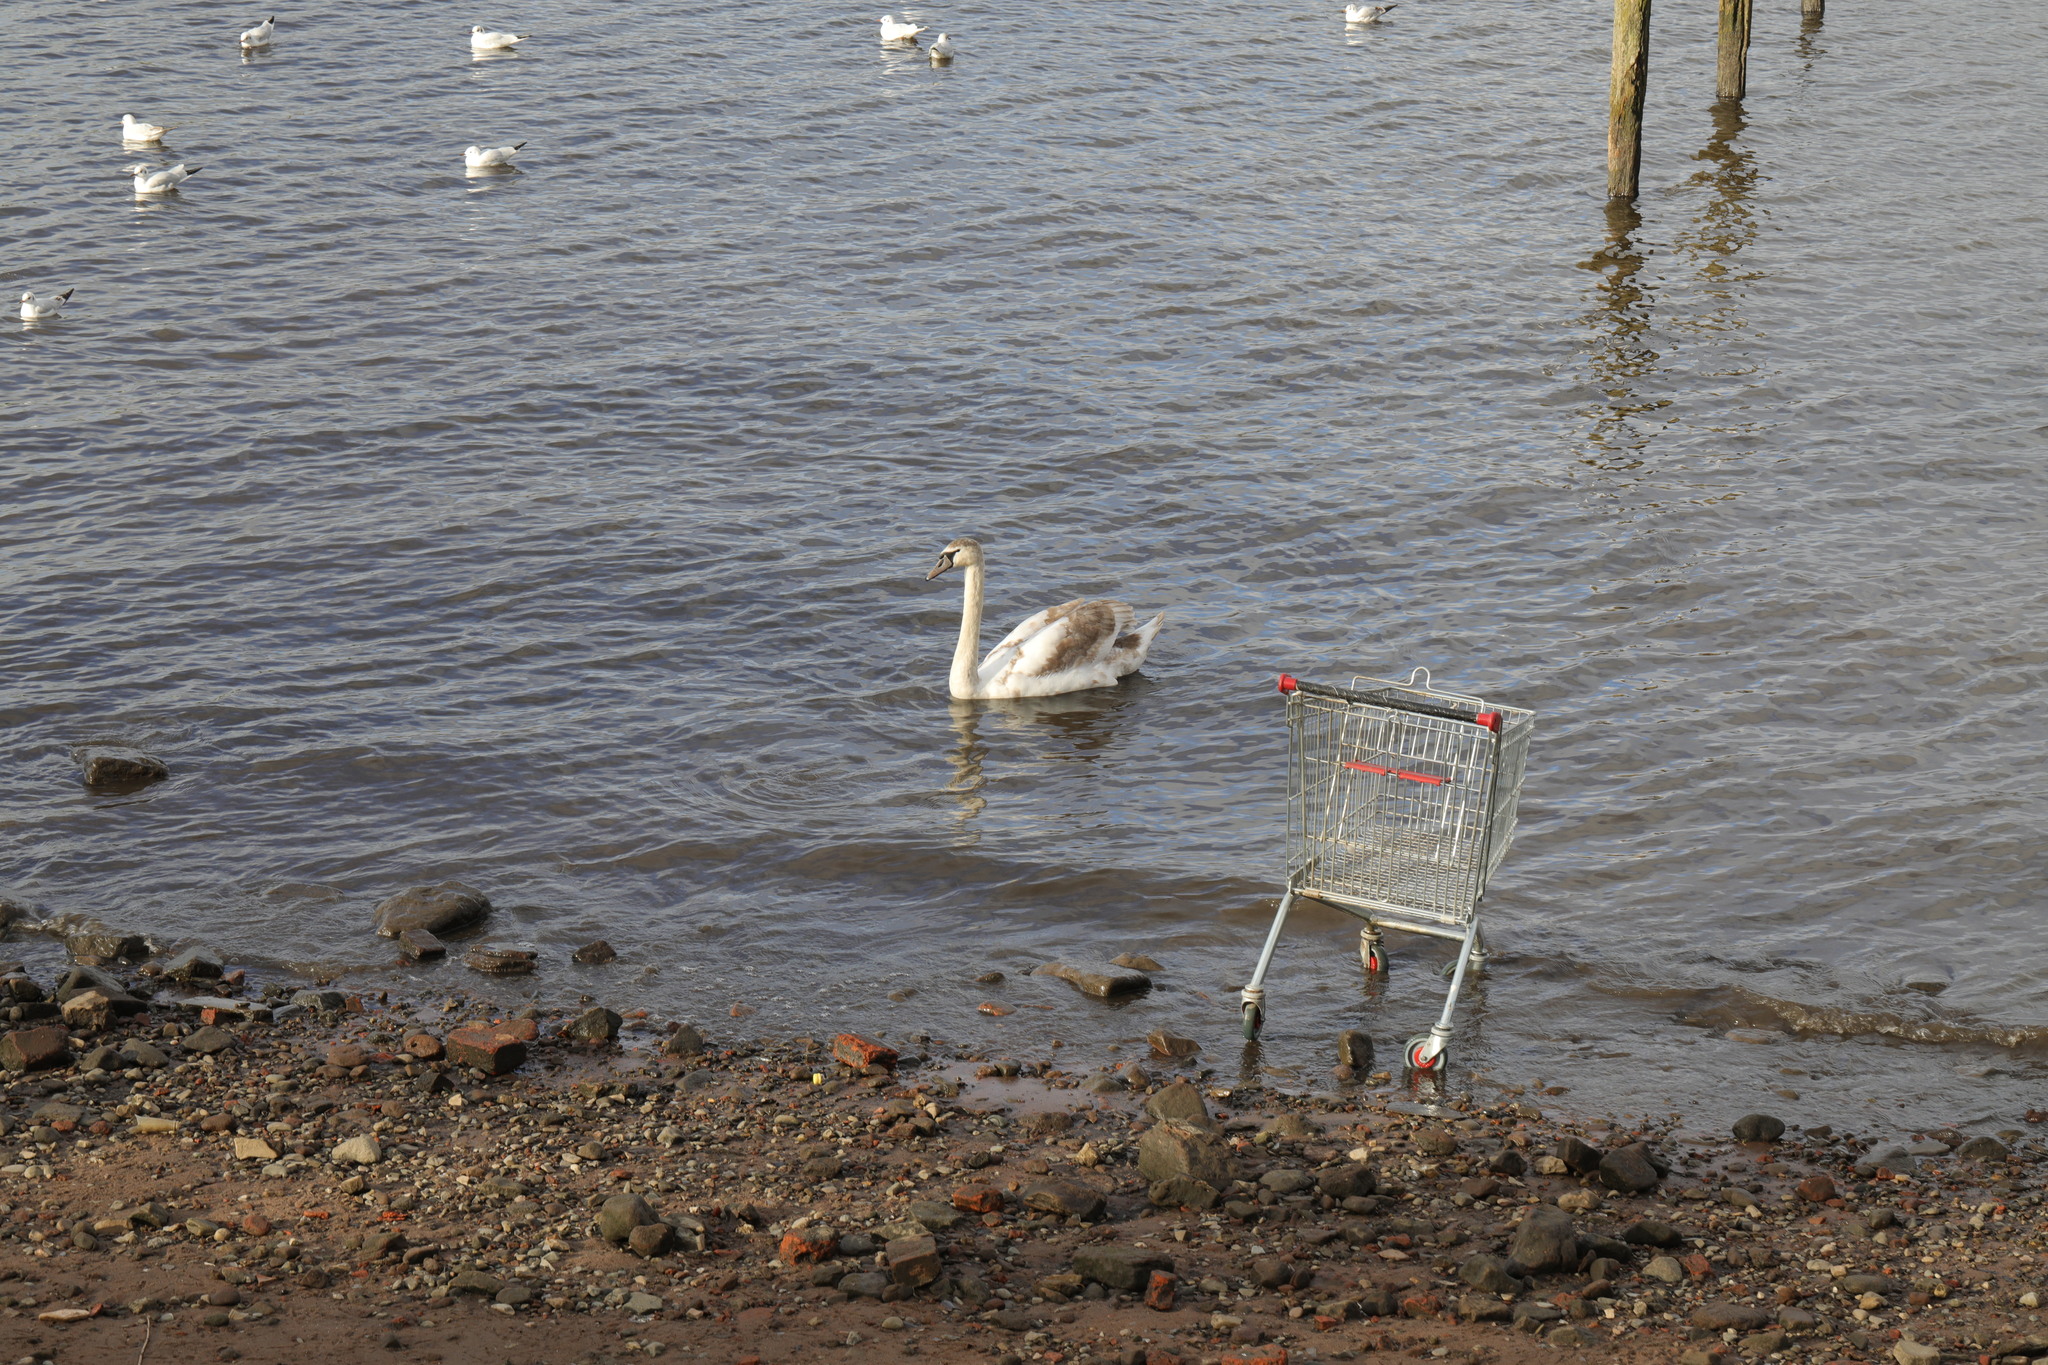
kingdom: Animalia
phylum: Chordata
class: Aves
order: Anseriformes
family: Anatidae
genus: Cygnus
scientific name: Cygnus olor
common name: Mute swan
